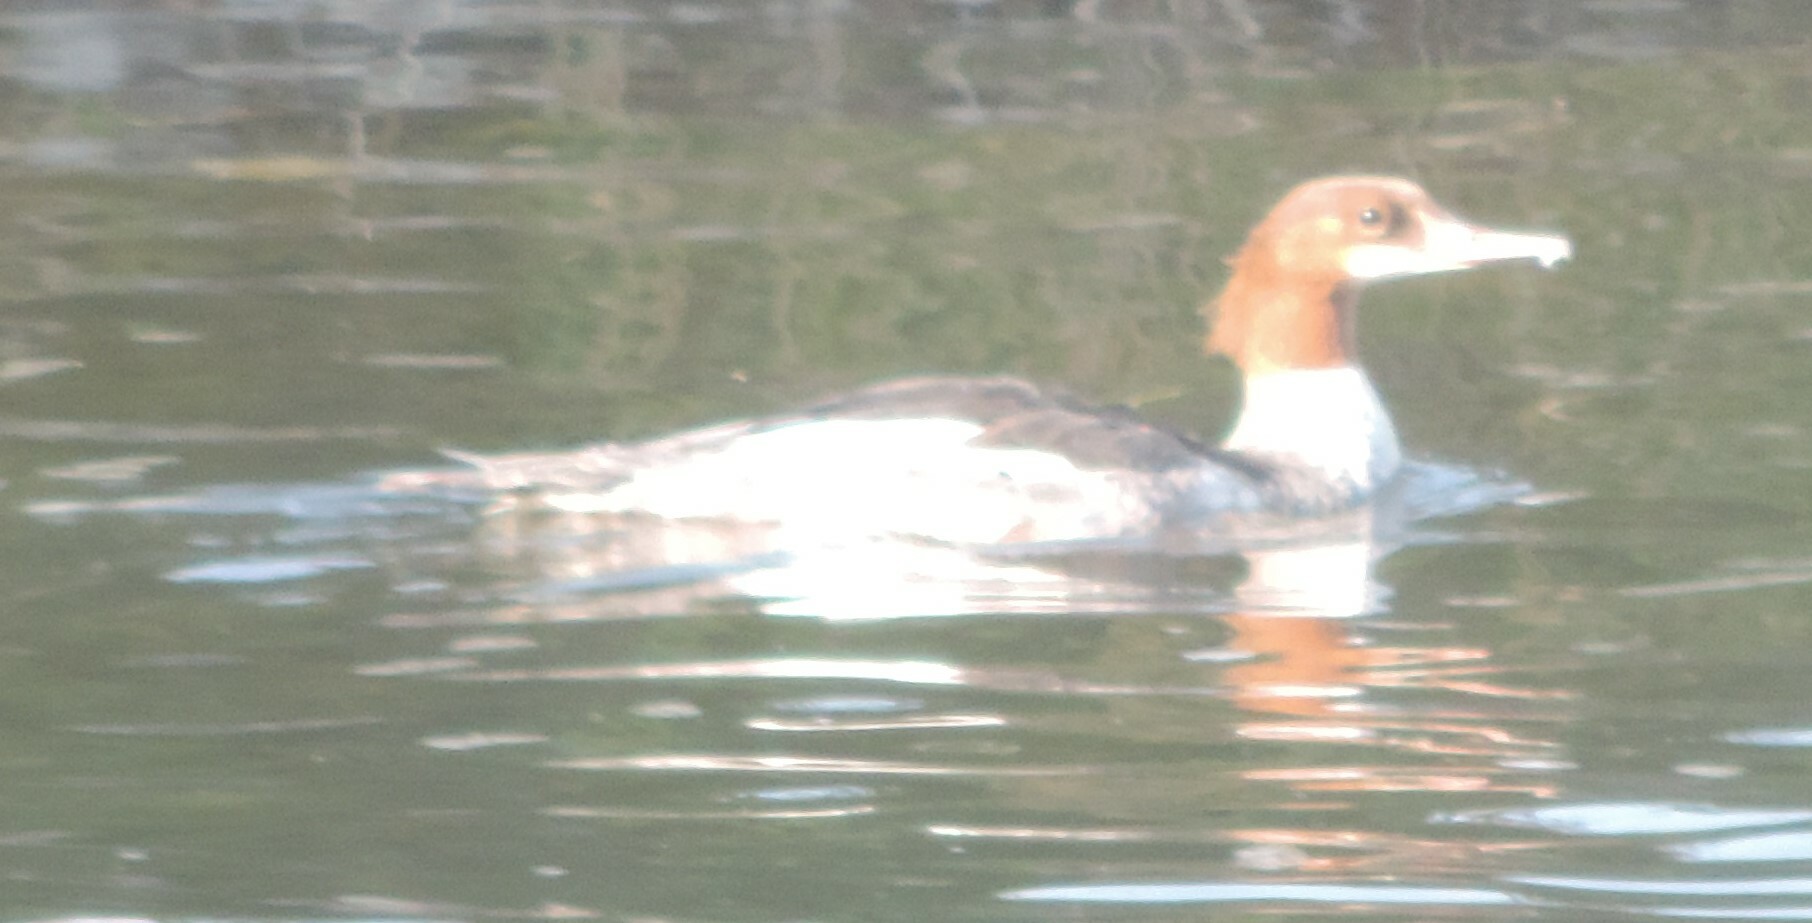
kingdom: Animalia
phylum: Chordata
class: Aves
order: Anseriformes
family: Anatidae
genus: Mergus
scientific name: Mergus merganser
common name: Common merganser
